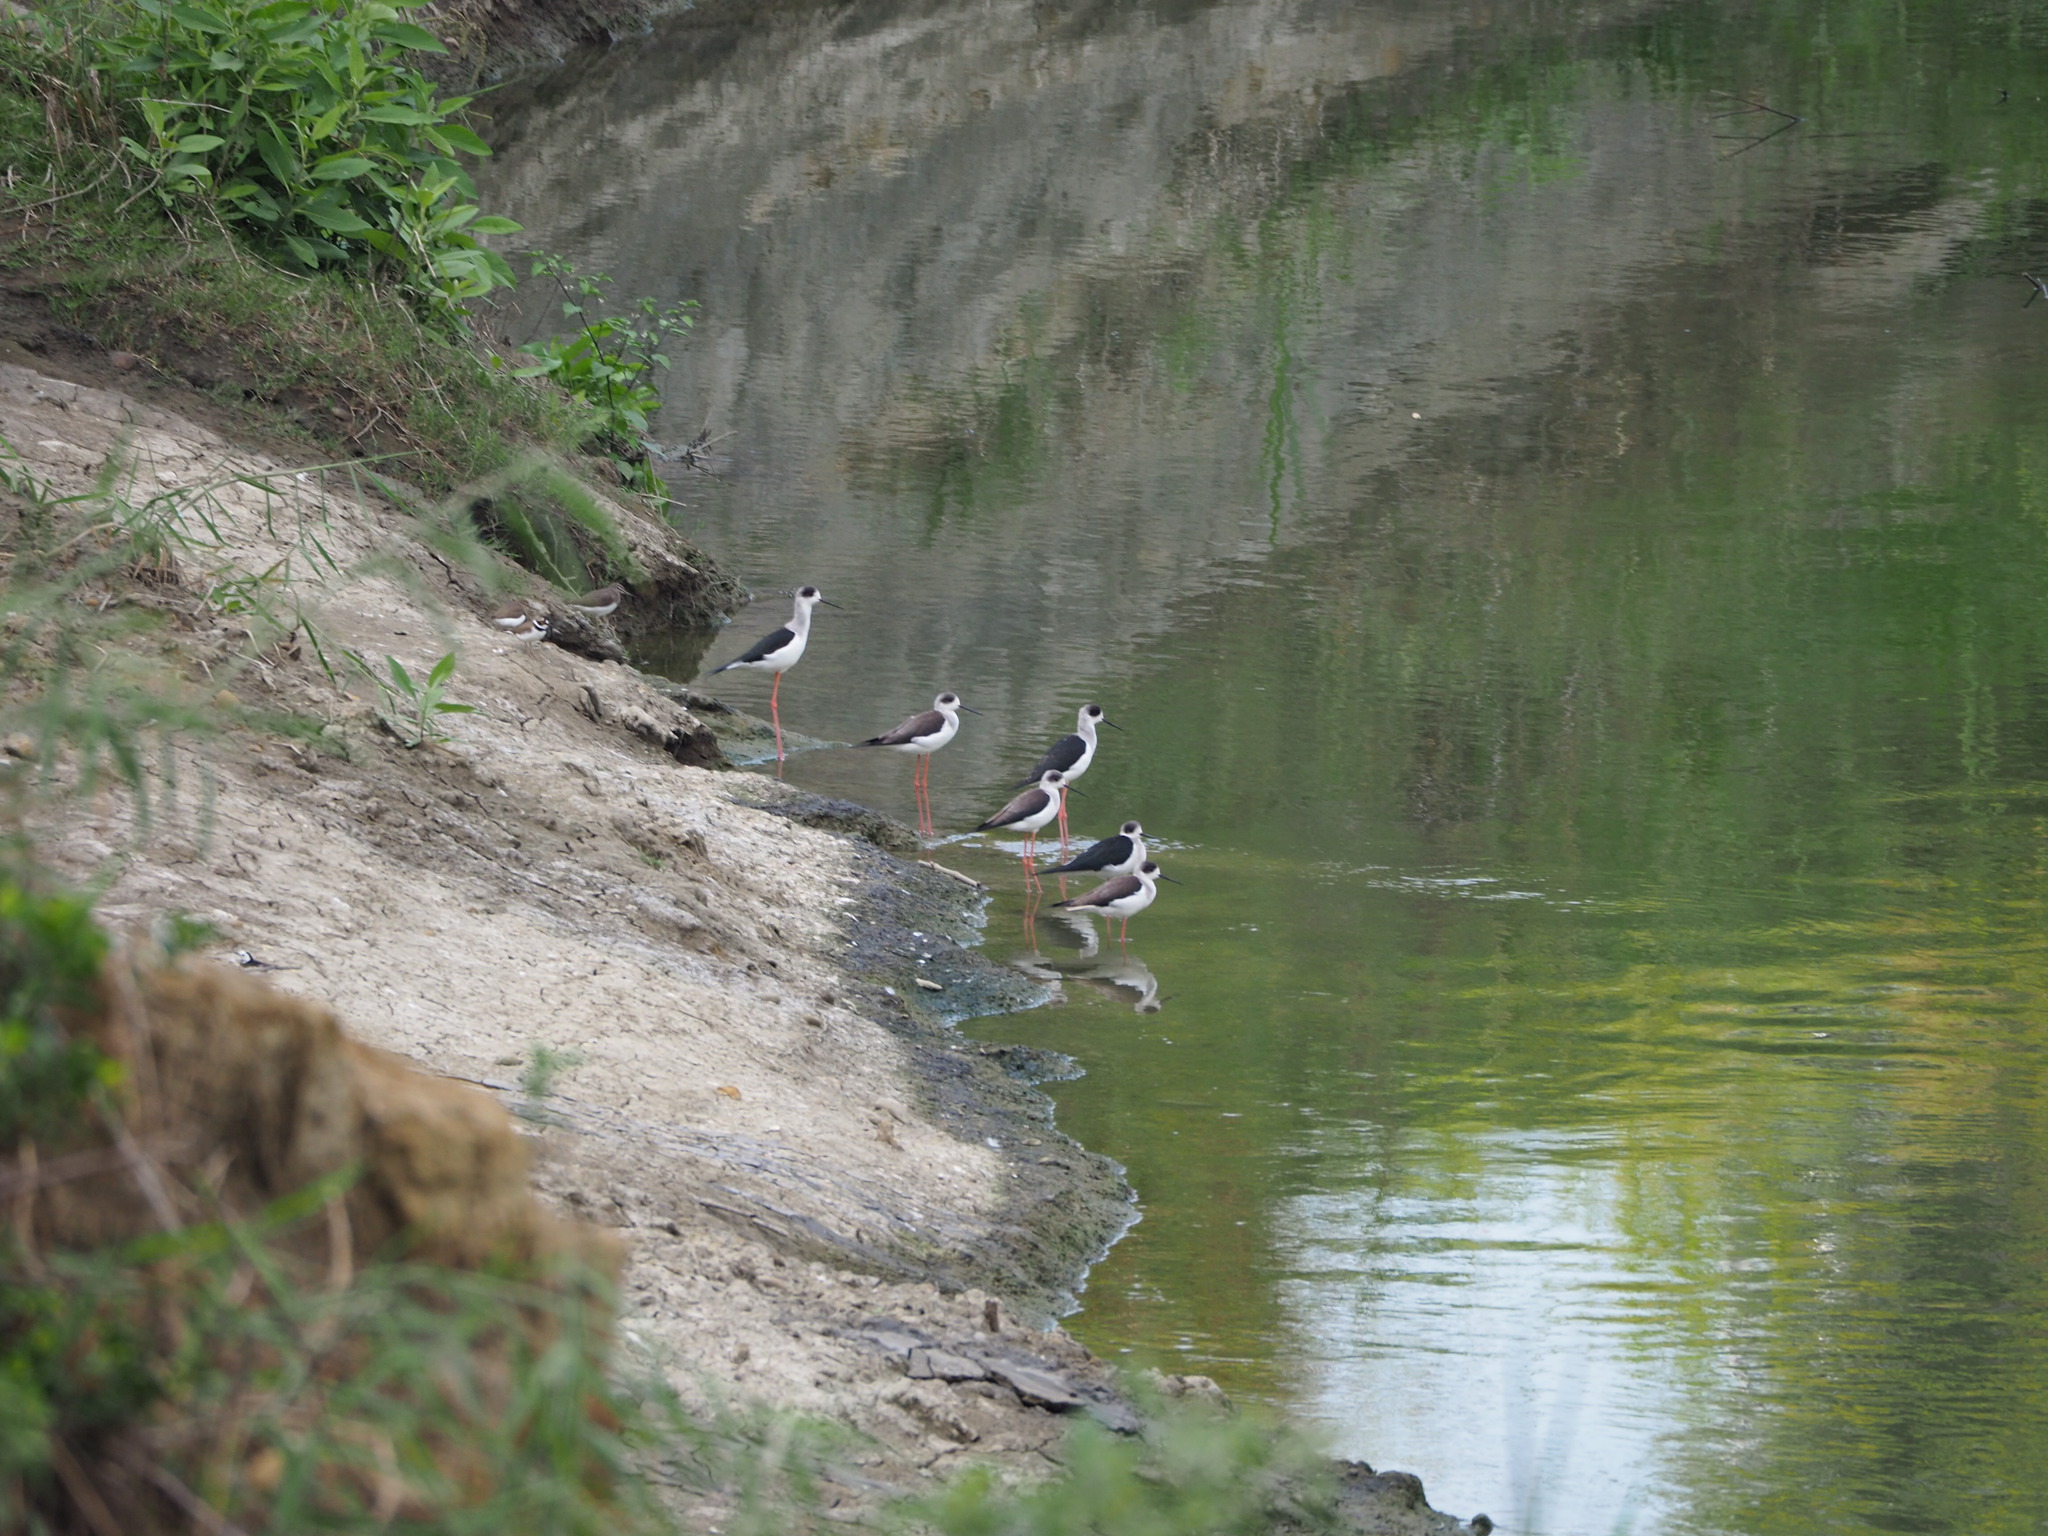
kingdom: Animalia
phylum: Chordata
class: Aves
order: Charadriiformes
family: Recurvirostridae
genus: Himantopus
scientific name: Himantopus himantopus
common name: Black-winged stilt
